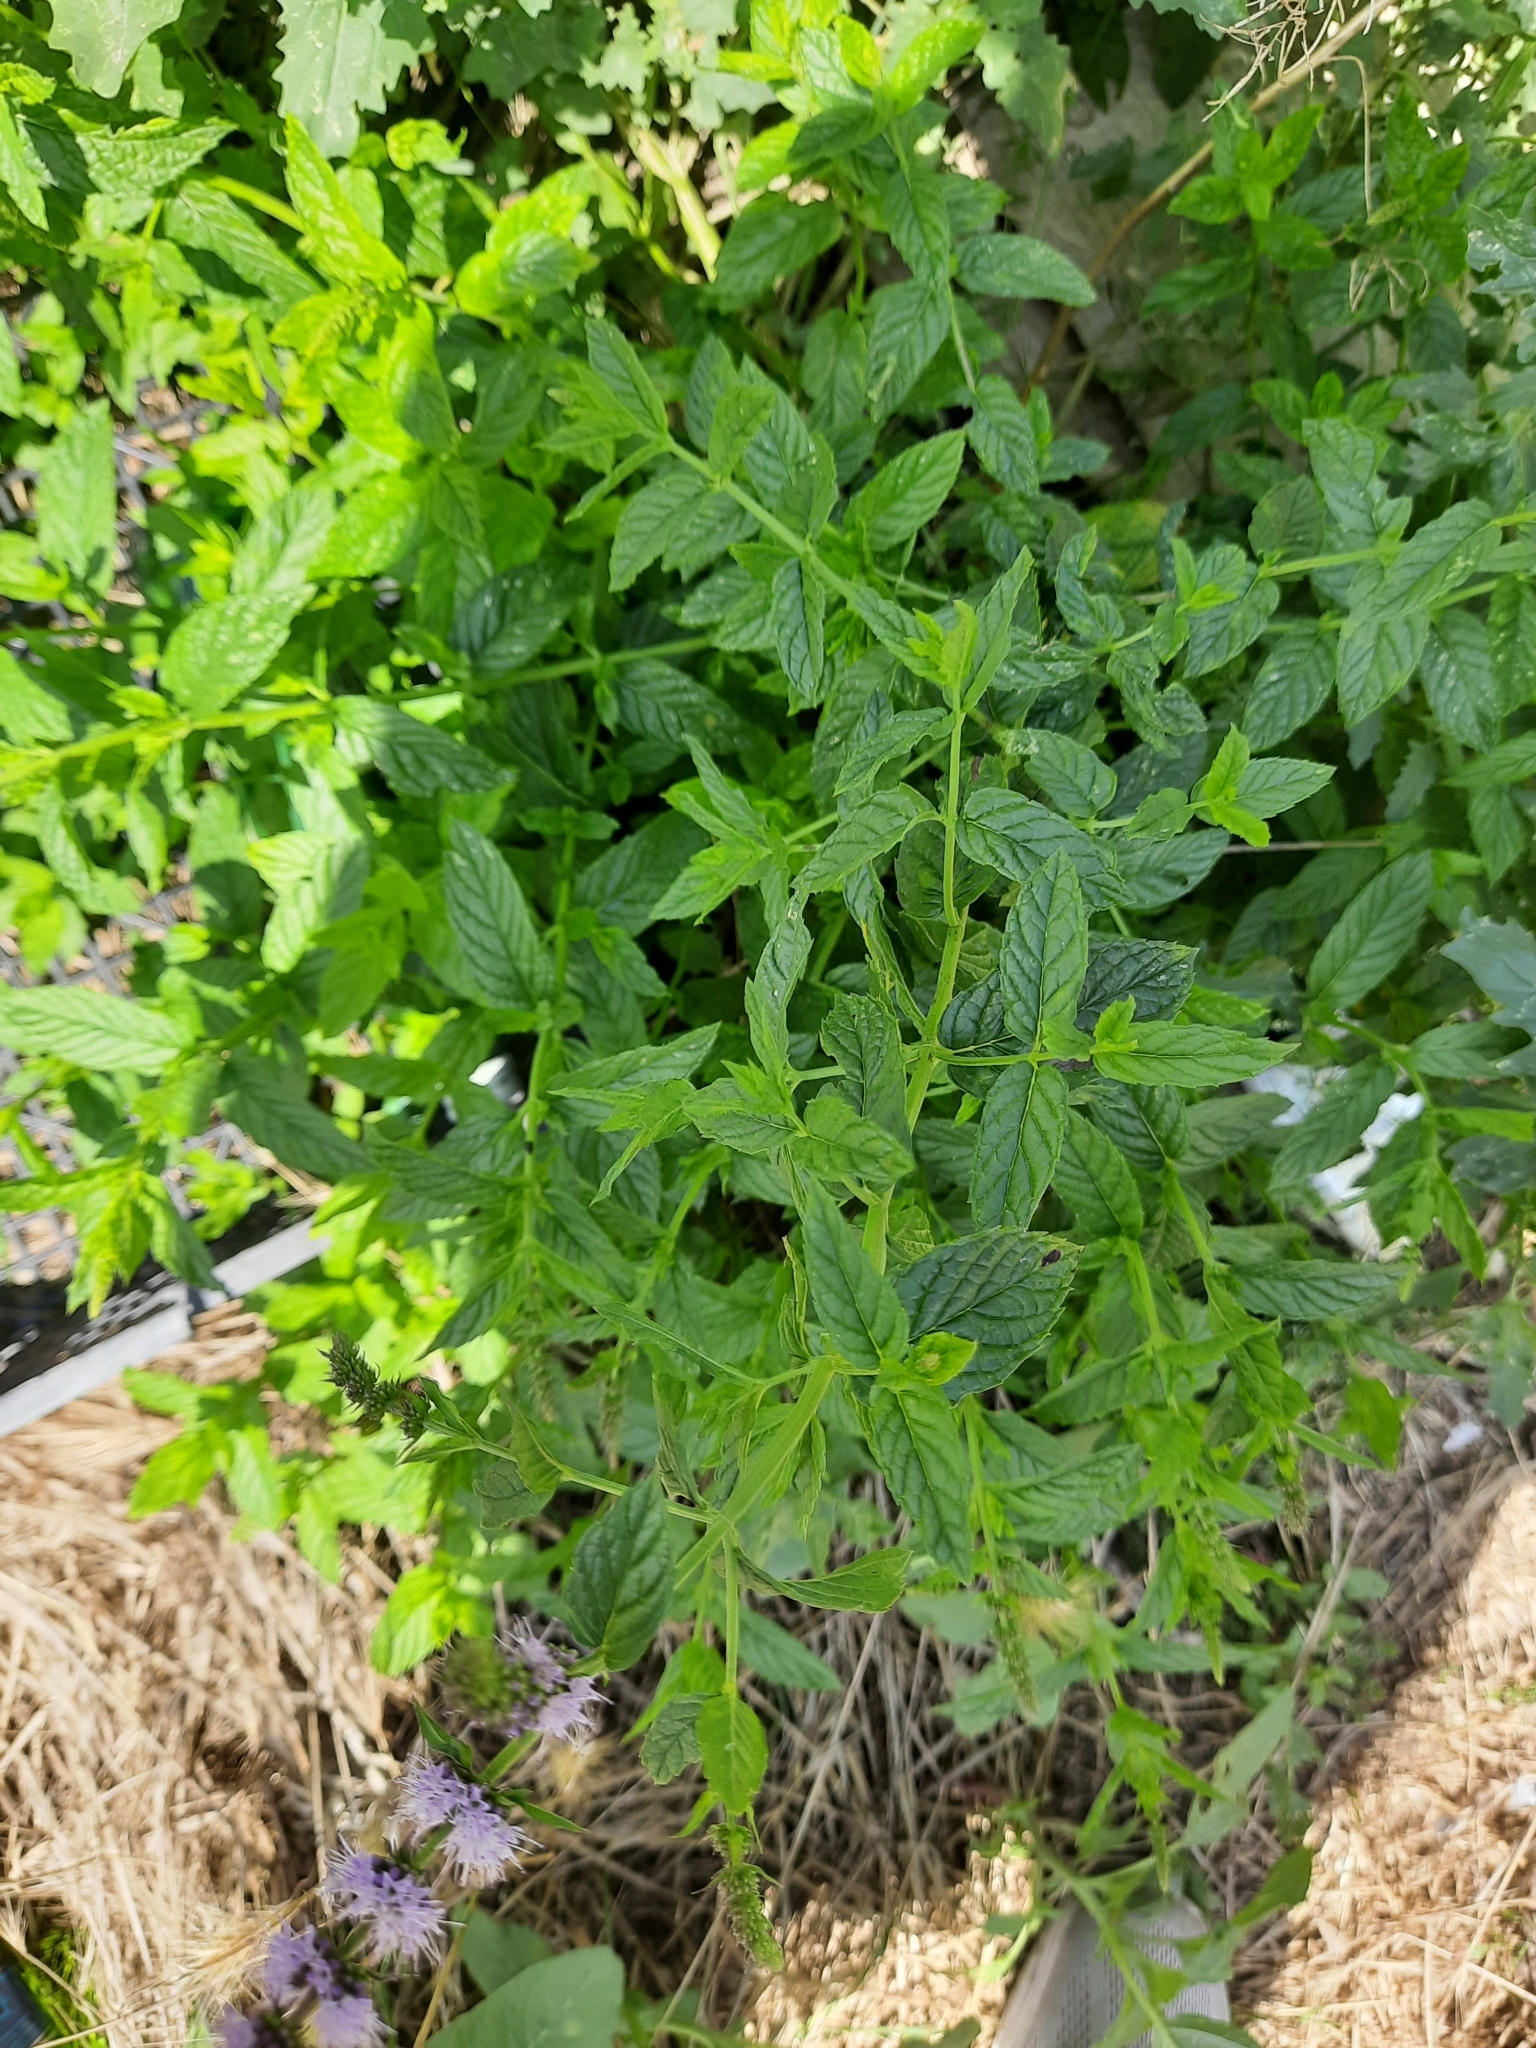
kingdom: Plantae
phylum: Tracheophyta
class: Magnoliopsida
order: Lamiales
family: Lamiaceae
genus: Mentha
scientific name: Mentha spicata
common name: Spearmint
